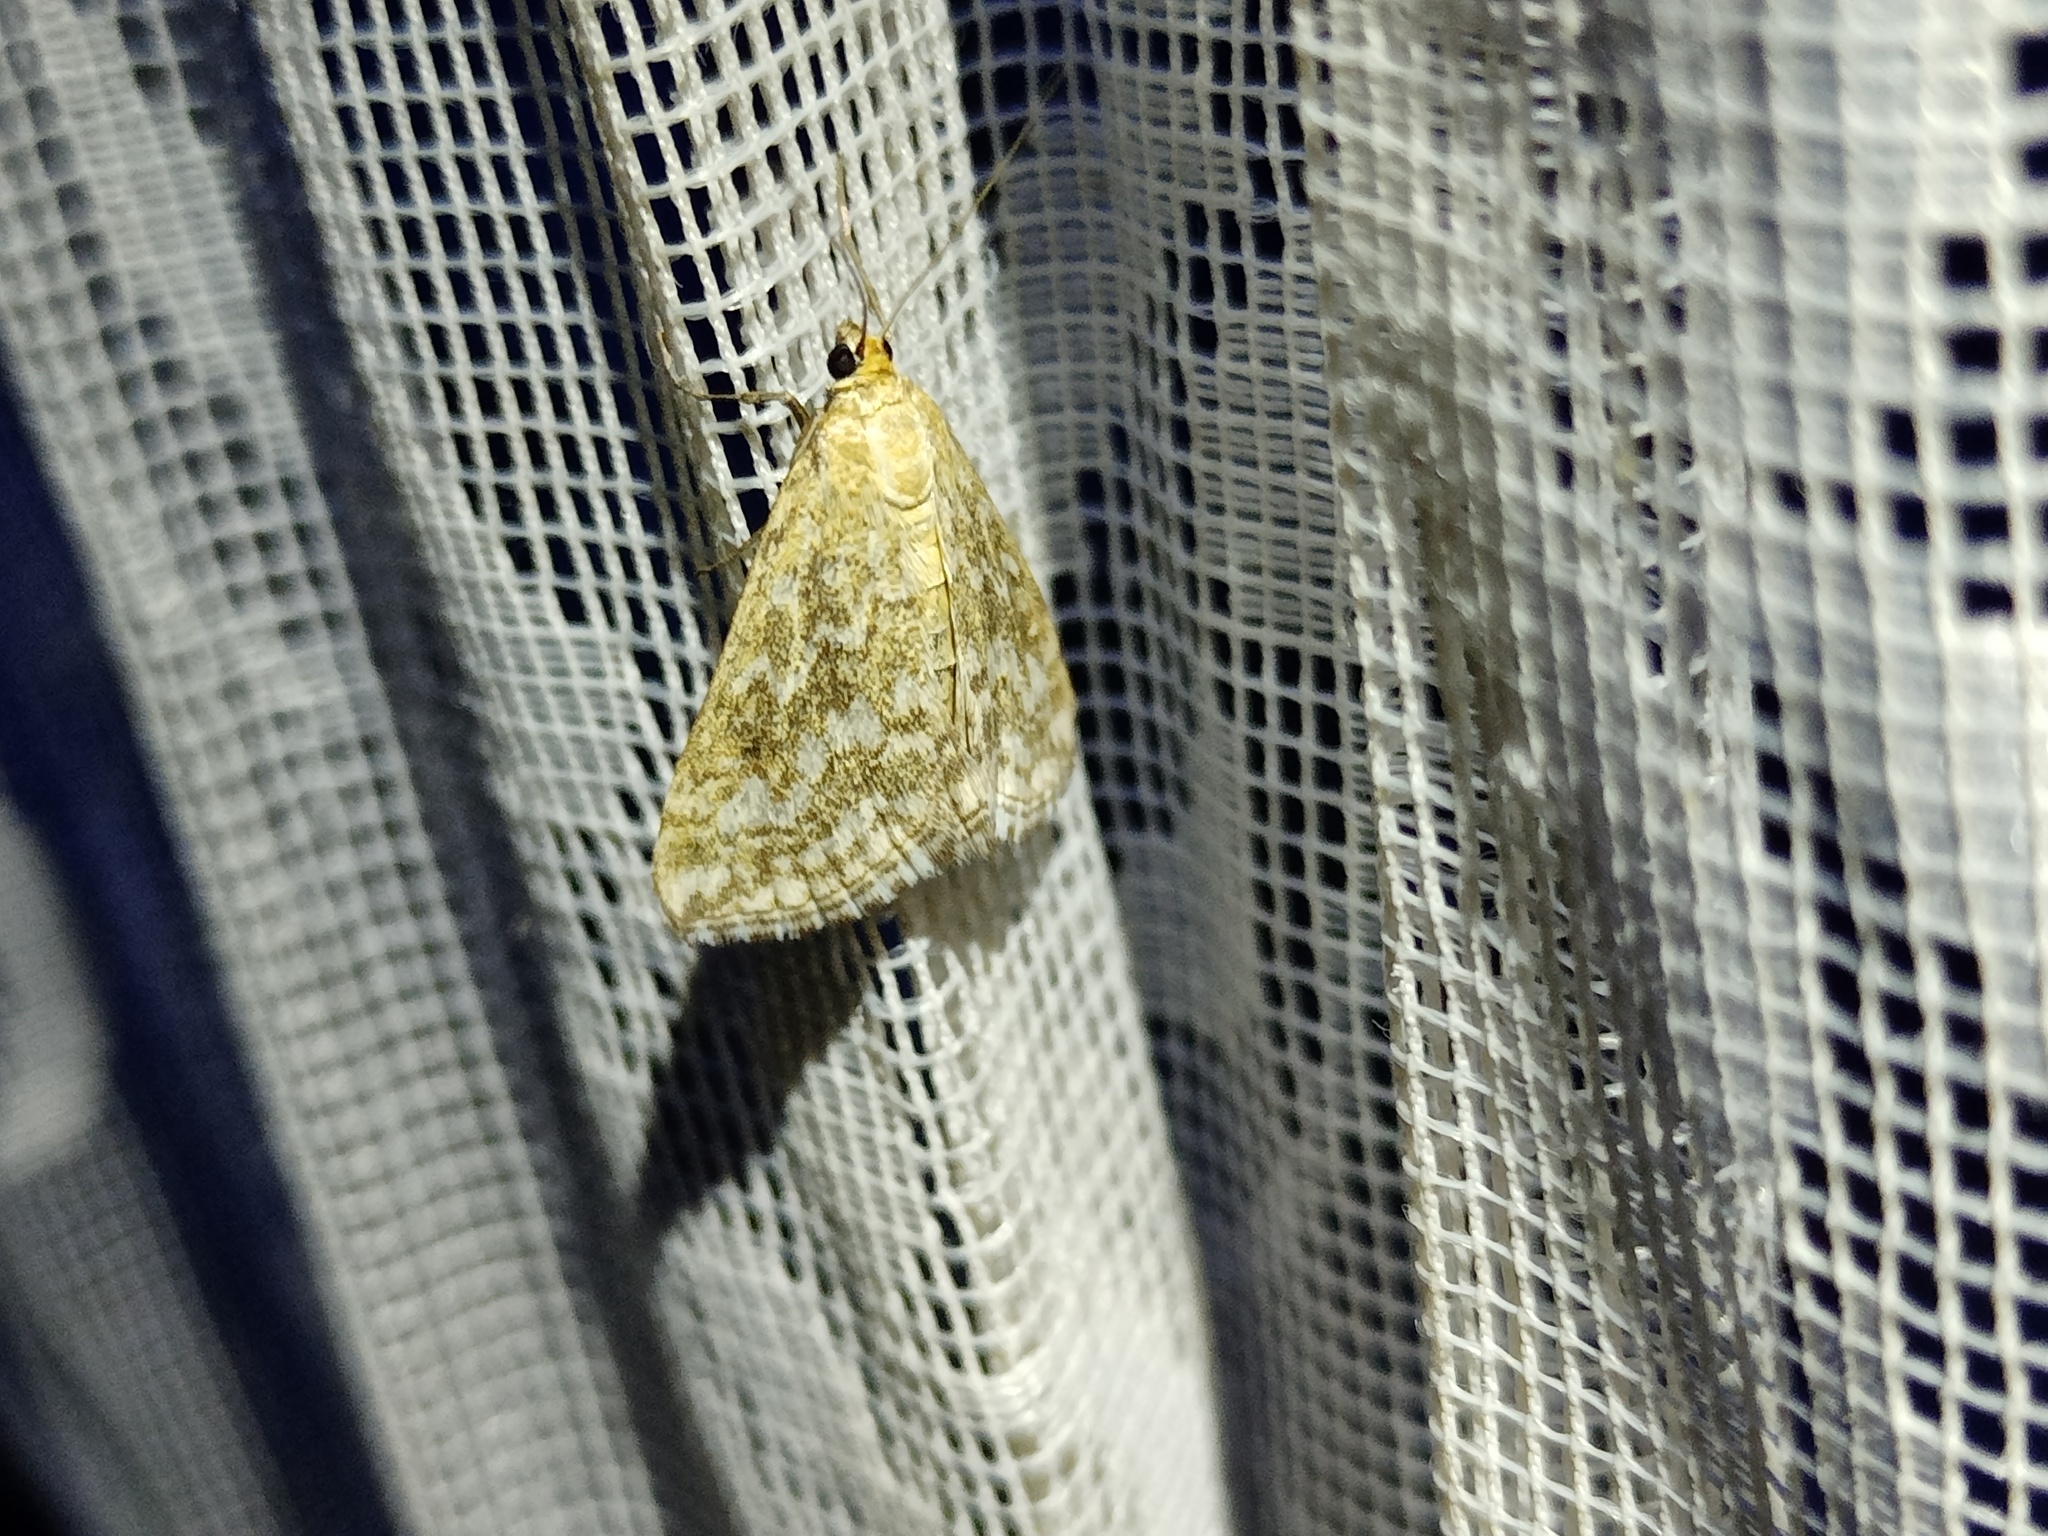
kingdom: Animalia
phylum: Arthropoda
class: Insecta
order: Lepidoptera
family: Crambidae
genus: Evergestis
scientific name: Evergestis frumentalis
